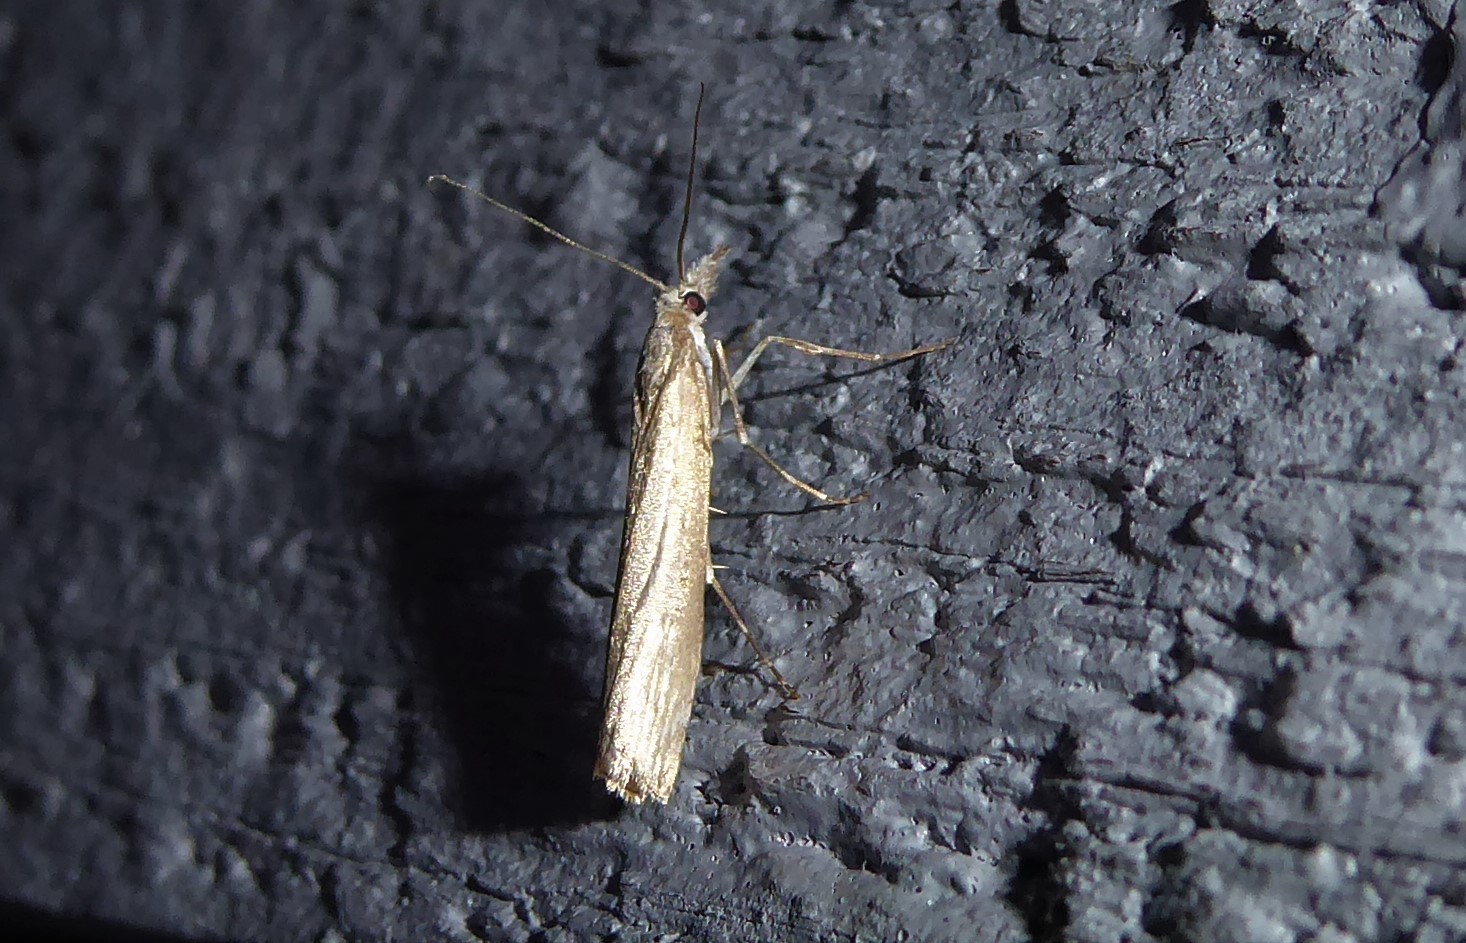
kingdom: Animalia
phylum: Arthropoda
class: Insecta
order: Lepidoptera
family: Crambidae
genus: Orocrambus
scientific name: Orocrambus cyclopicus
